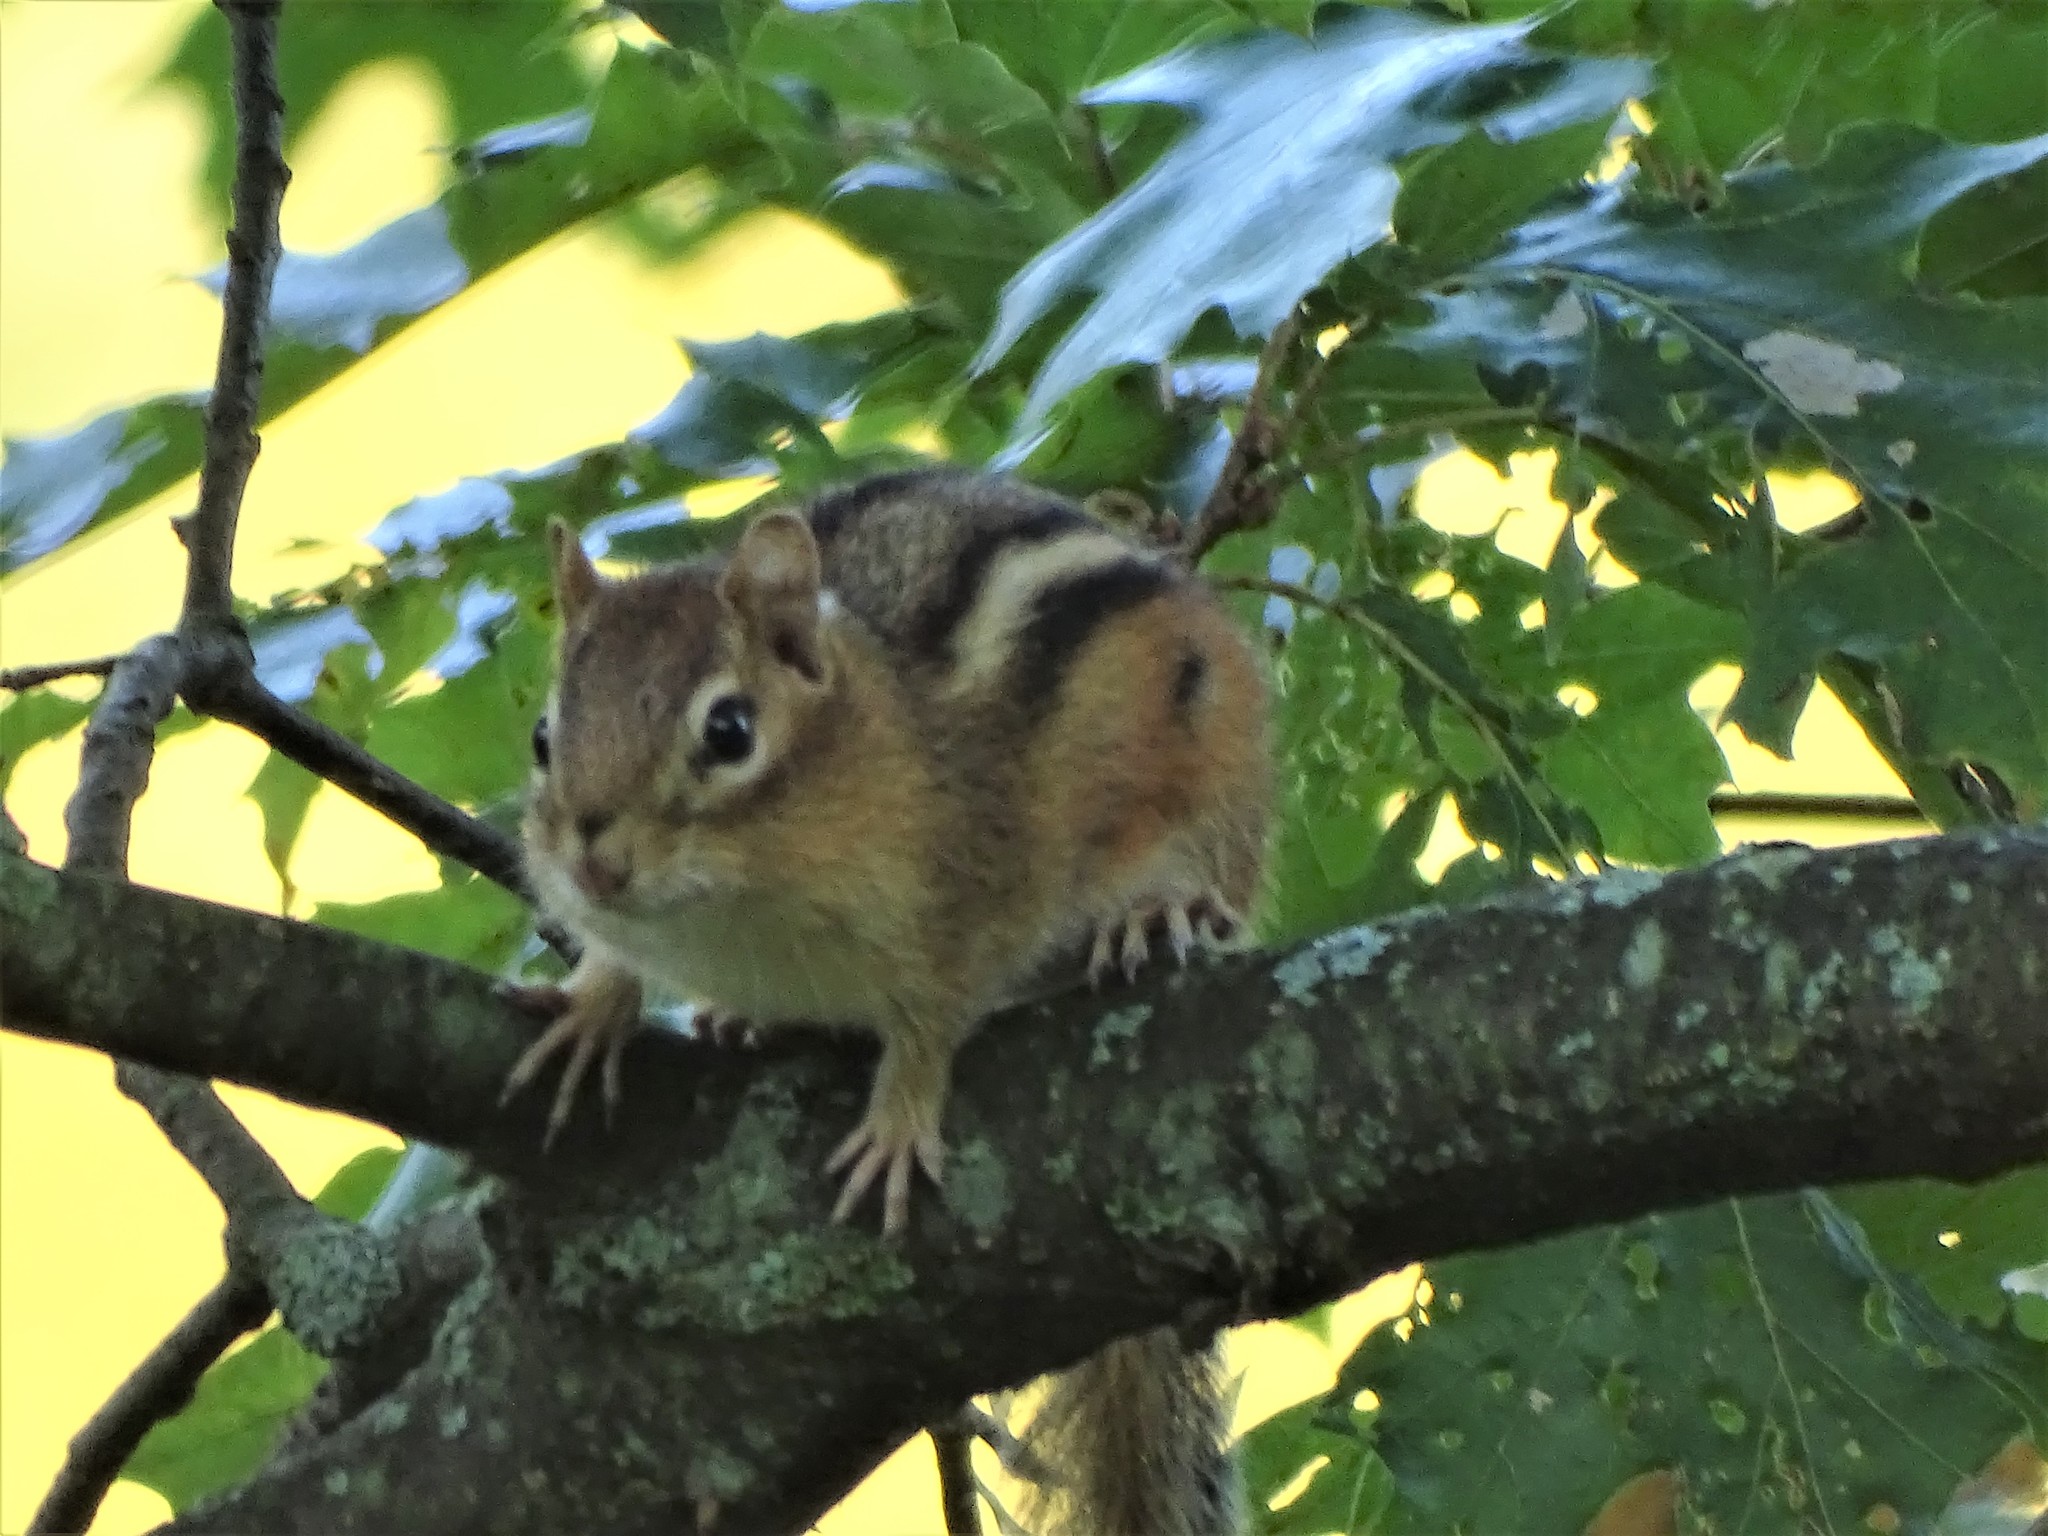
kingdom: Animalia
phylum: Chordata
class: Mammalia
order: Rodentia
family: Sciuridae
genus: Tamias
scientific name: Tamias striatus
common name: Eastern chipmunk
